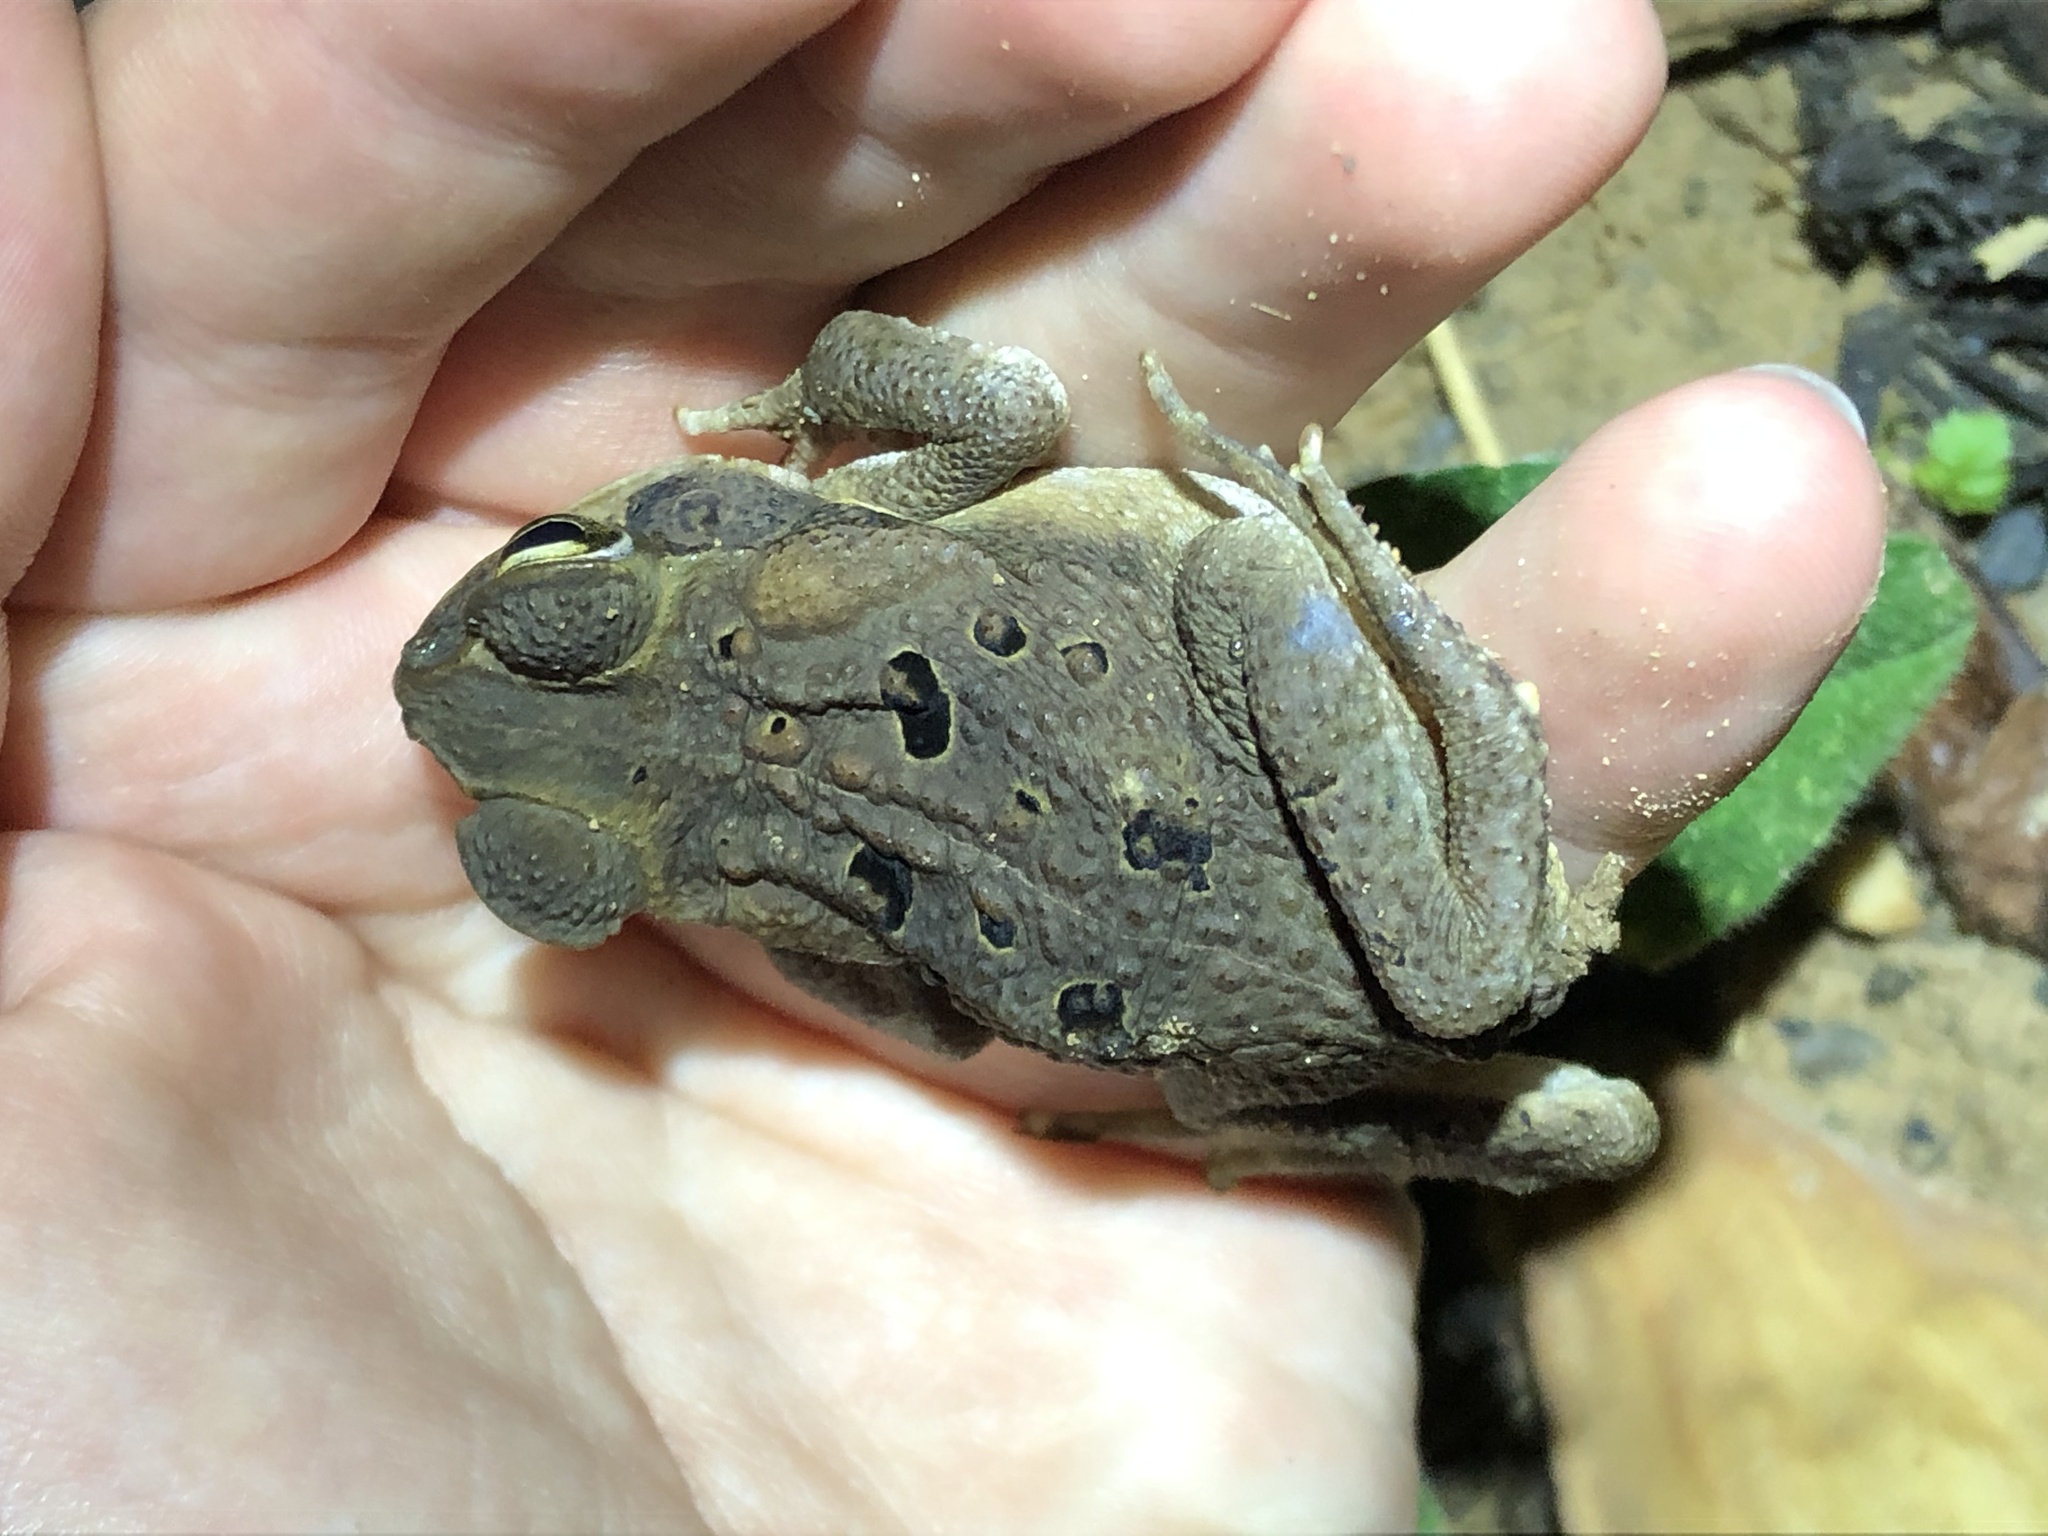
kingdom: Animalia
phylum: Chordata
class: Amphibia
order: Anura
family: Bufonidae
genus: Rhinella
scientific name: Rhinella marina
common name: Cane toad
